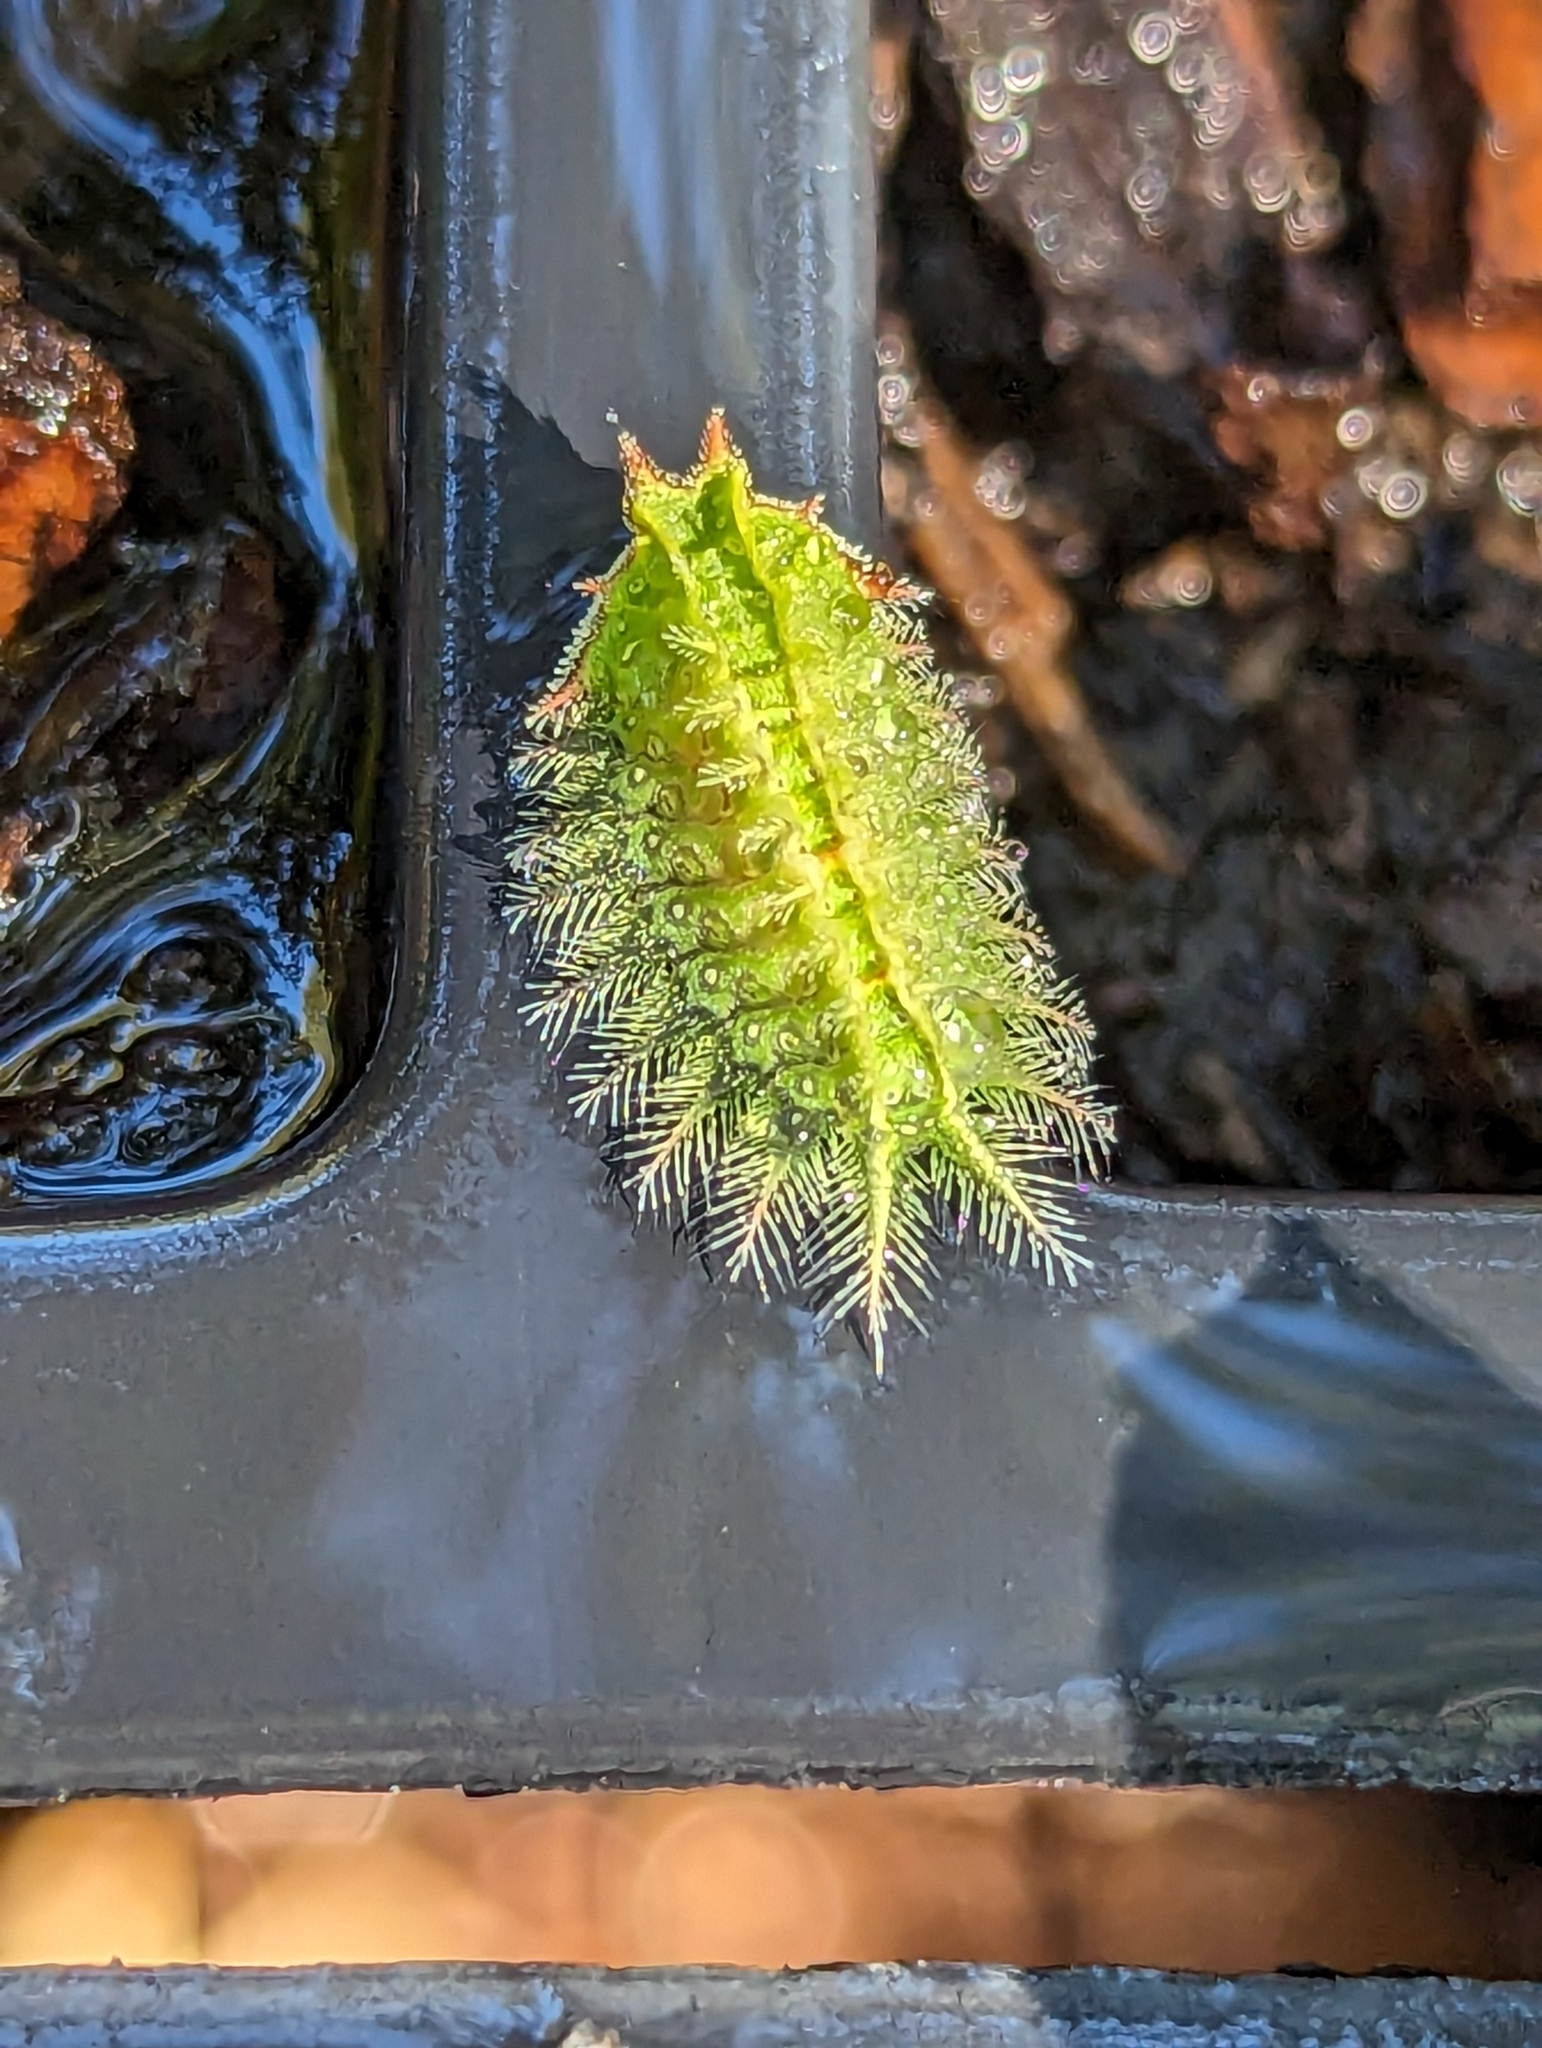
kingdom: Animalia
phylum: Arthropoda
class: Insecta
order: Lepidoptera
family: Limacodidae
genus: Isa
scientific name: Isa textula
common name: Crowned slug moth
